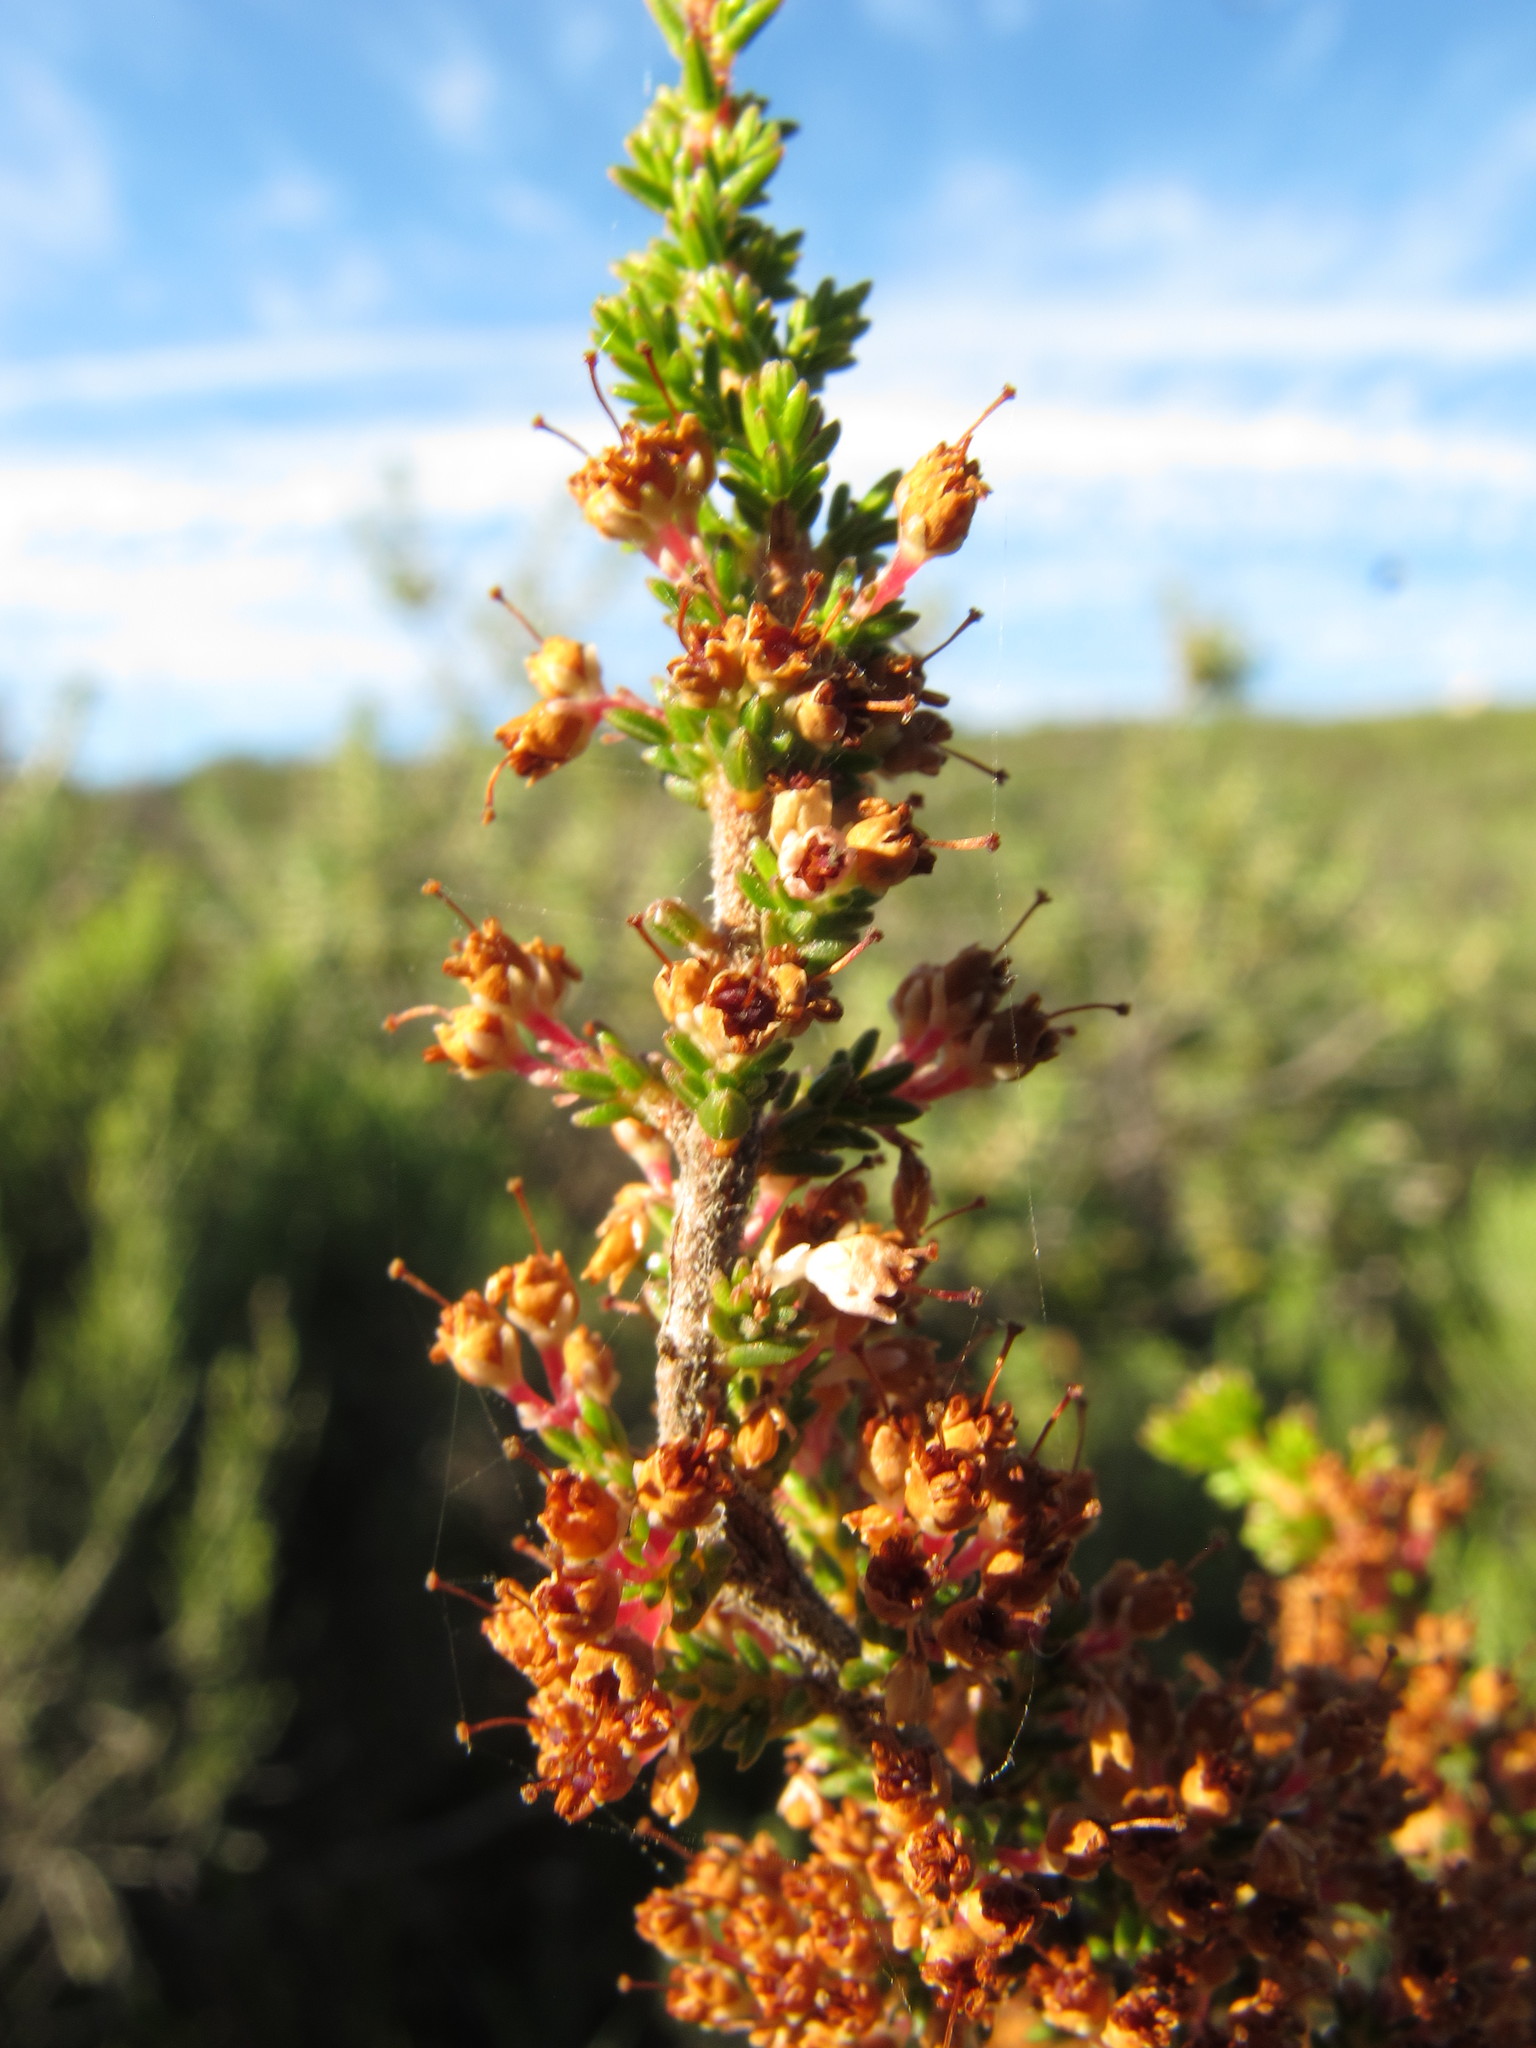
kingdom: Plantae
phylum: Tracheophyta
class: Magnoliopsida
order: Ericales
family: Ericaceae
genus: Erica
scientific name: Erica paniculata
